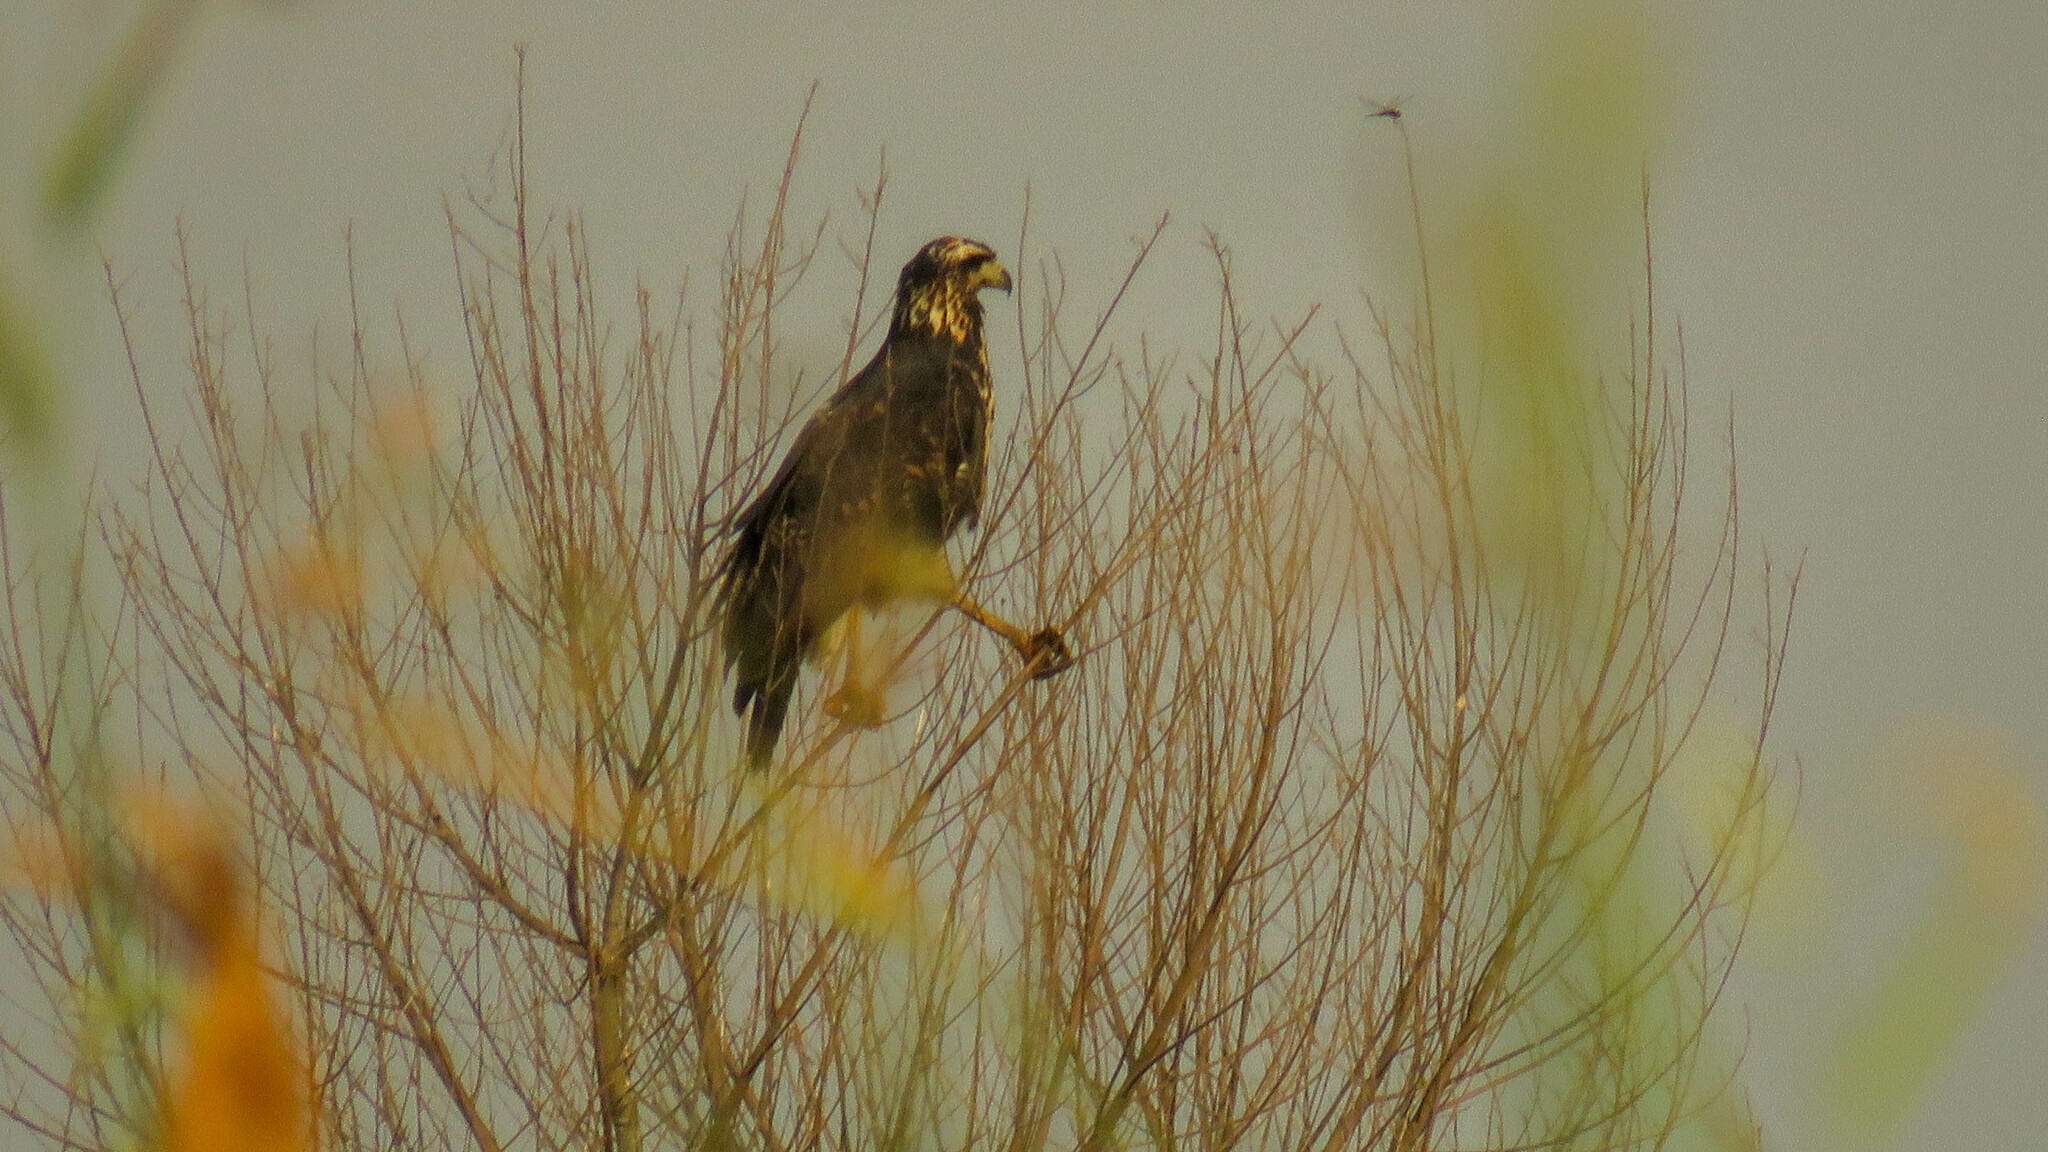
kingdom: Animalia
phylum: Chordata
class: Aves
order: Accipitriformes
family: Accipitridae
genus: Buteogallus
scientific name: Buteogallus urubitinga
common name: Great black hawk
